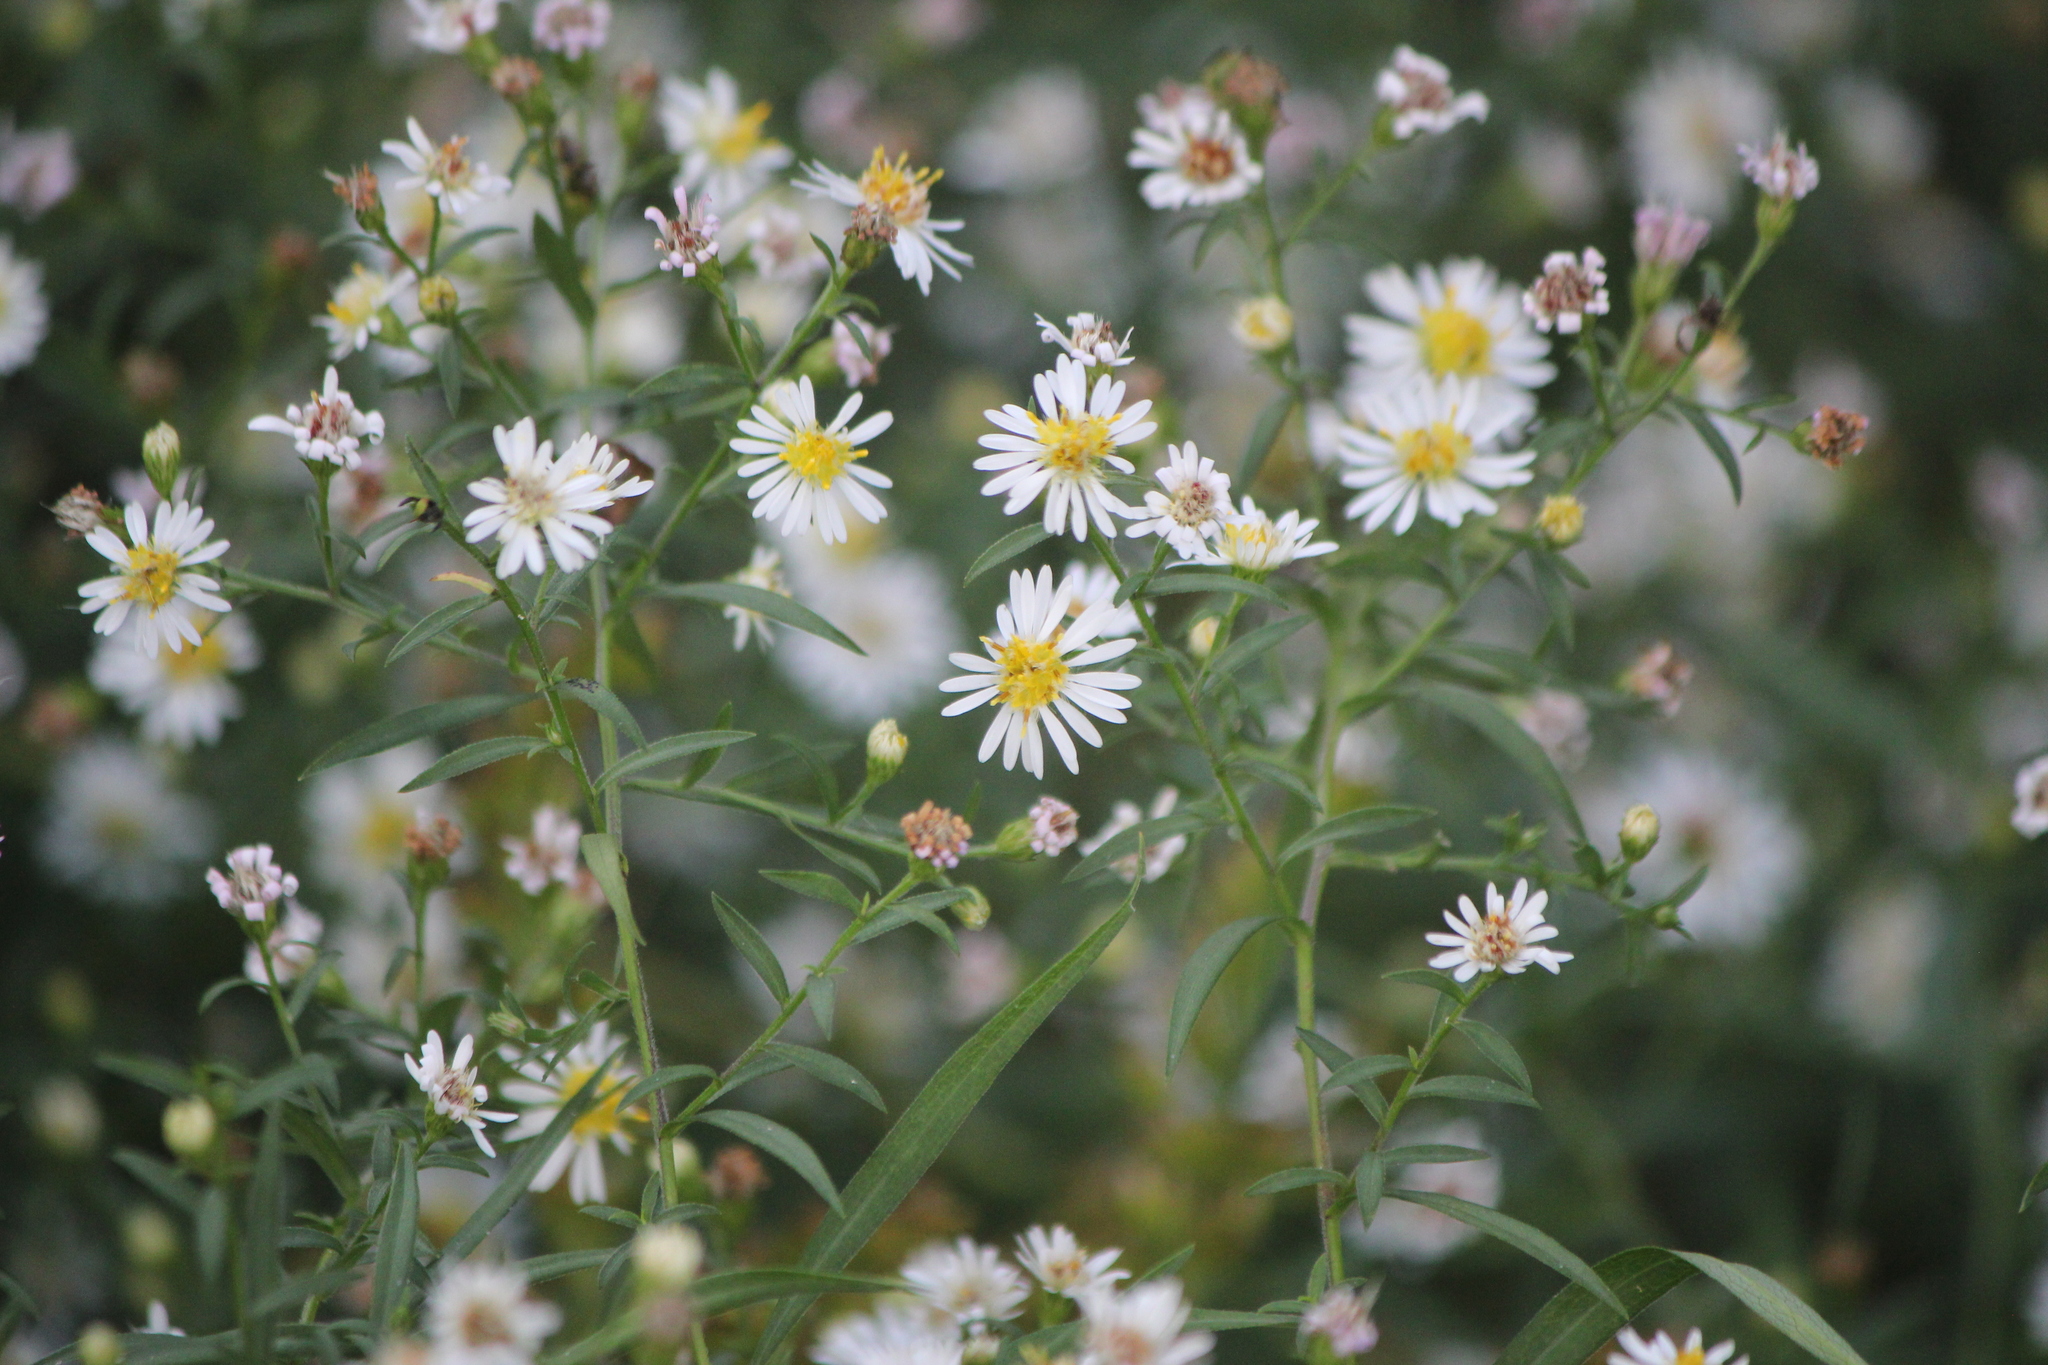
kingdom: Plantae
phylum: Tracheophyta
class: Magnoliopsida
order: Asterales
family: Asteraceae
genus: Symphyotrichum
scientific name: Symphyotrichum lanceolatum
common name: Panicled aster
